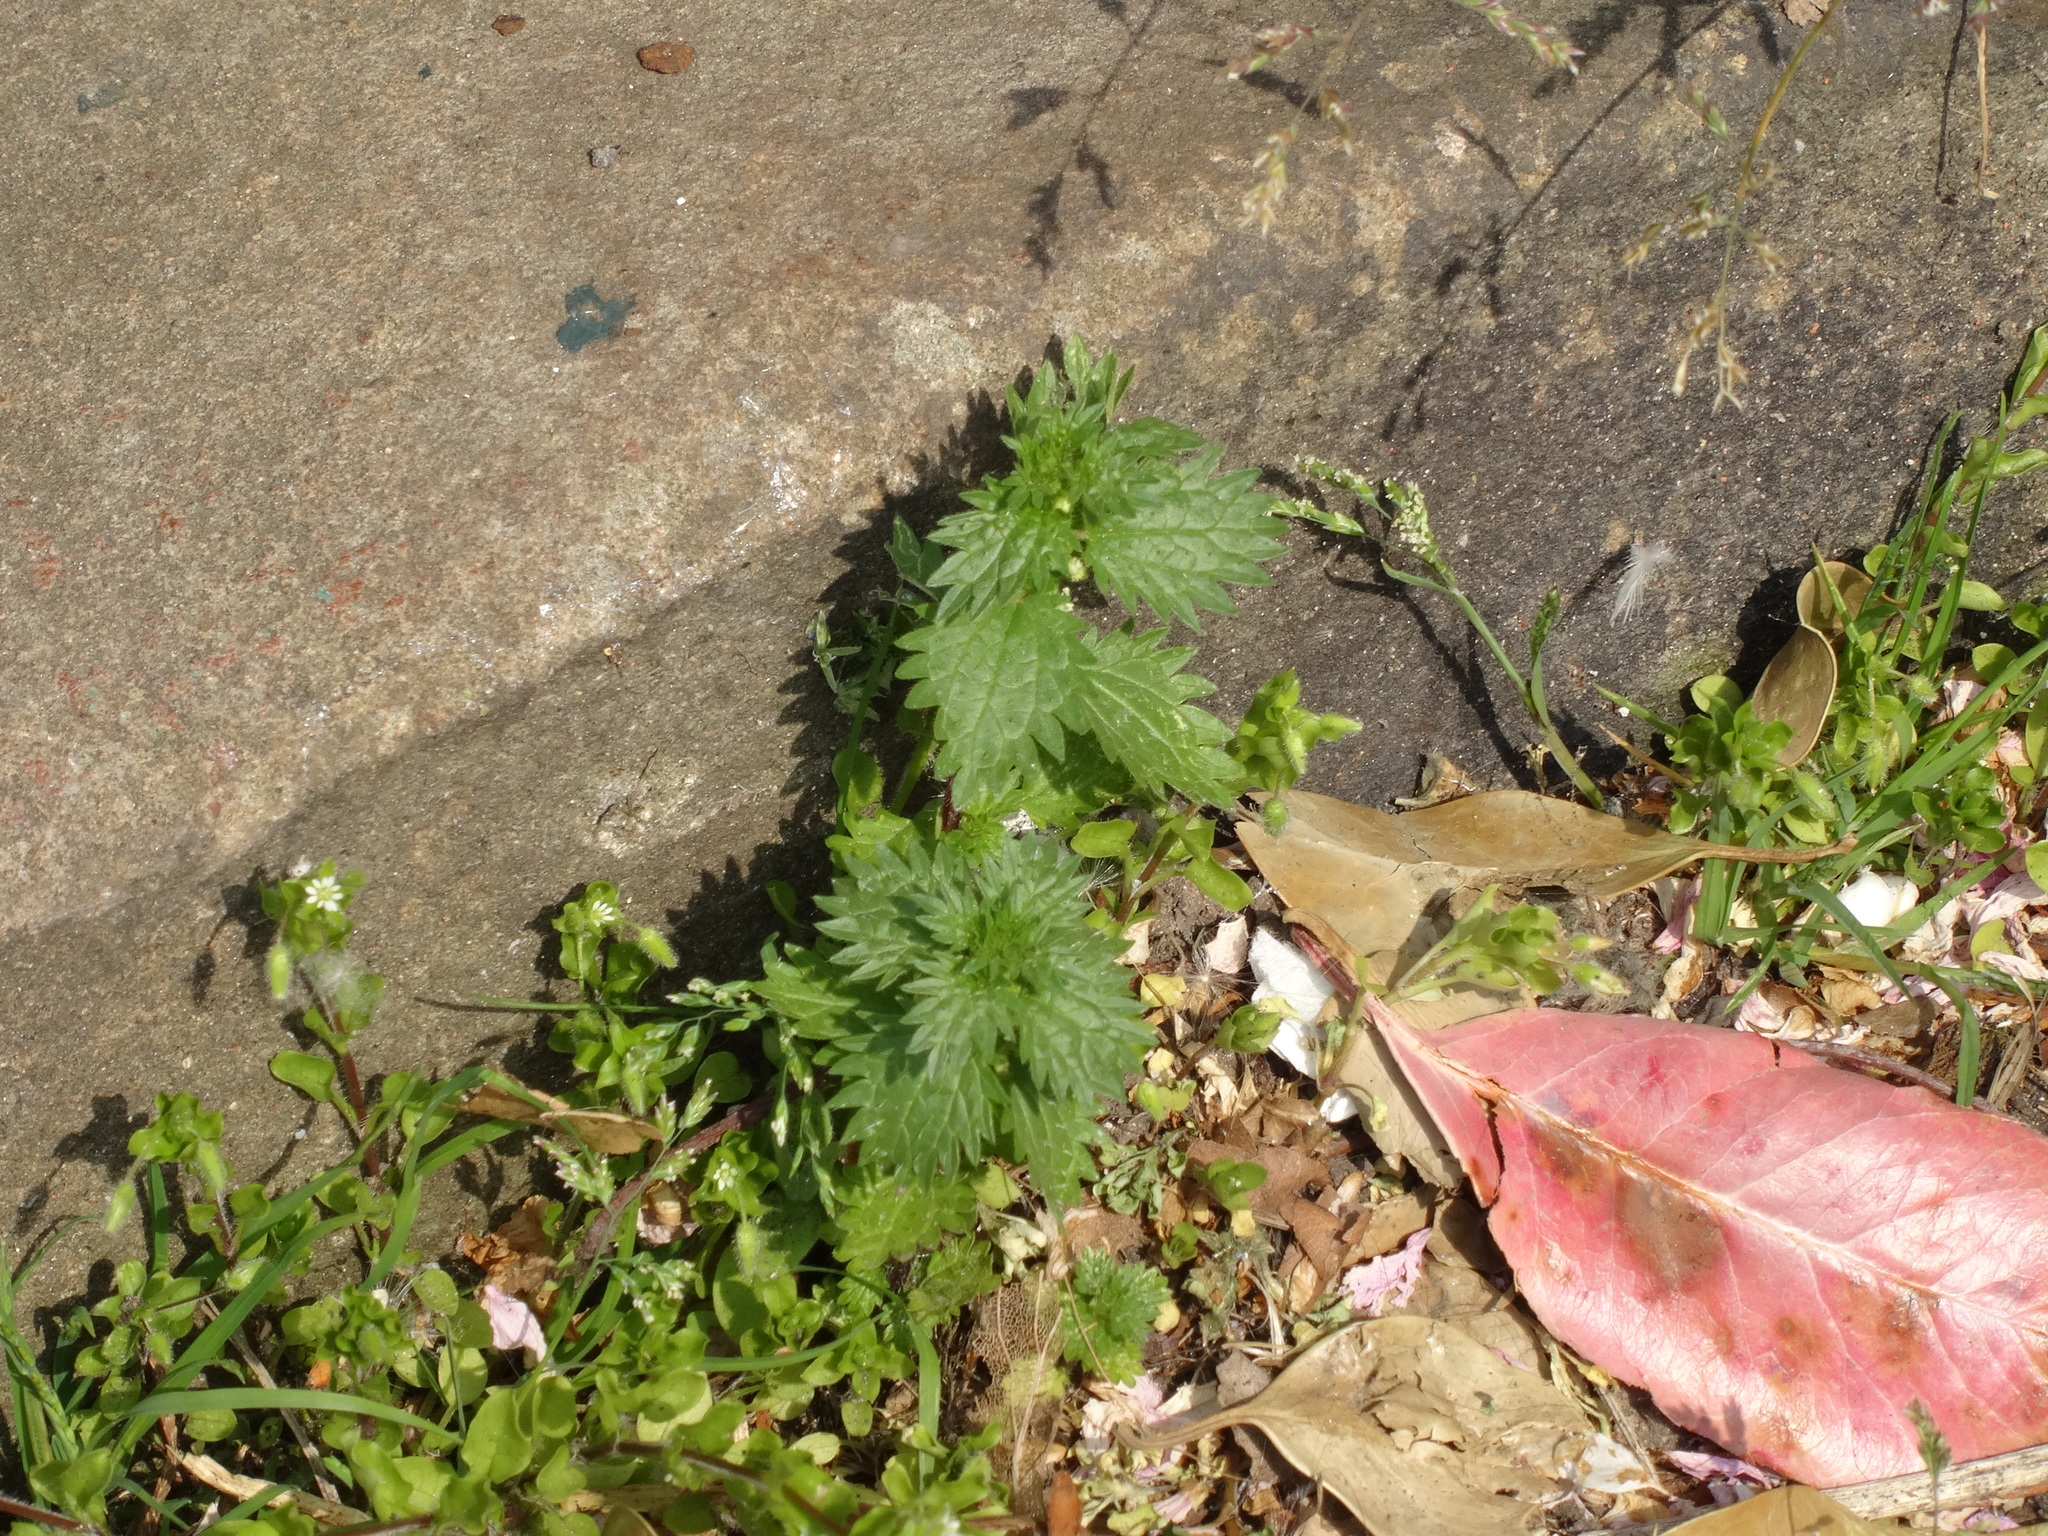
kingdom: Plantae
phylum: Tracheophyta
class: Magnoliopsida
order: Rosales
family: Urticaceae
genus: Urtica
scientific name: Urtica urens
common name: Dwarf nettle
